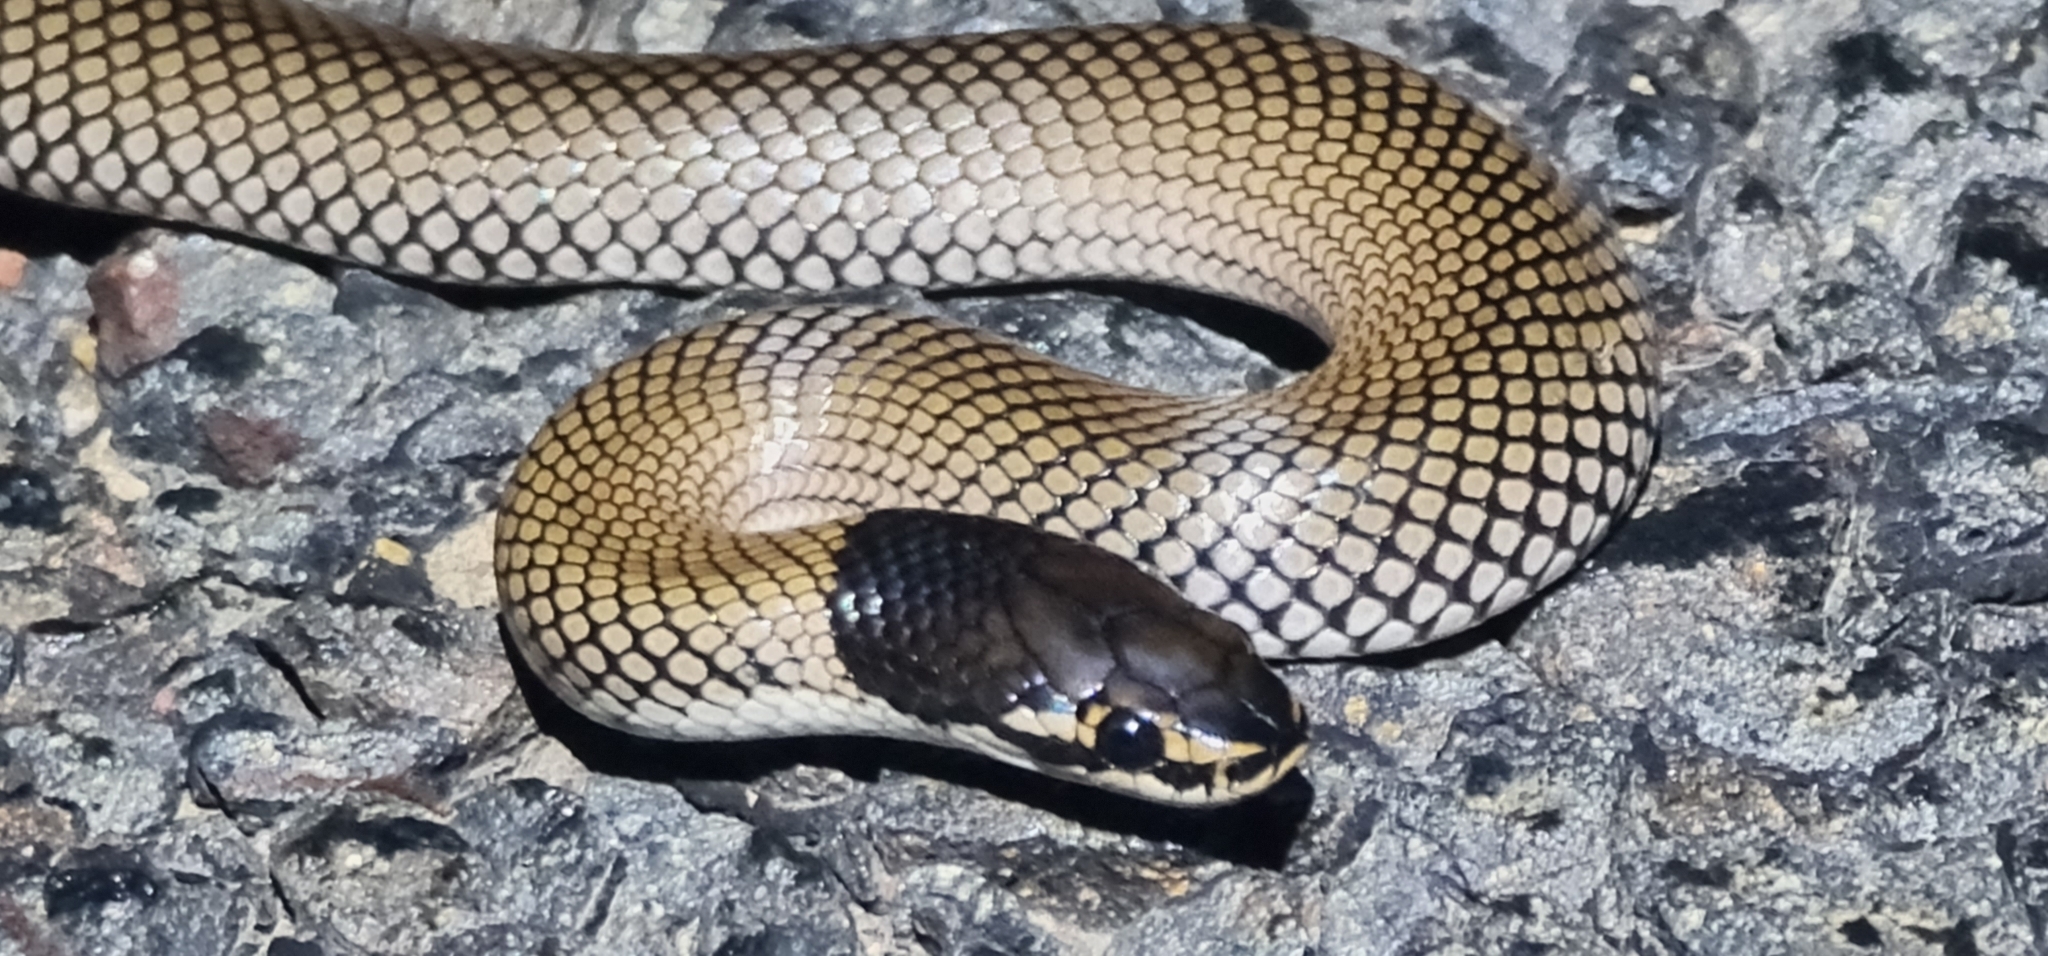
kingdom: Animalia
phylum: Chordata
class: Squamata
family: Elapidae
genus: Suta
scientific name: Suta suta
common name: Curl snake
